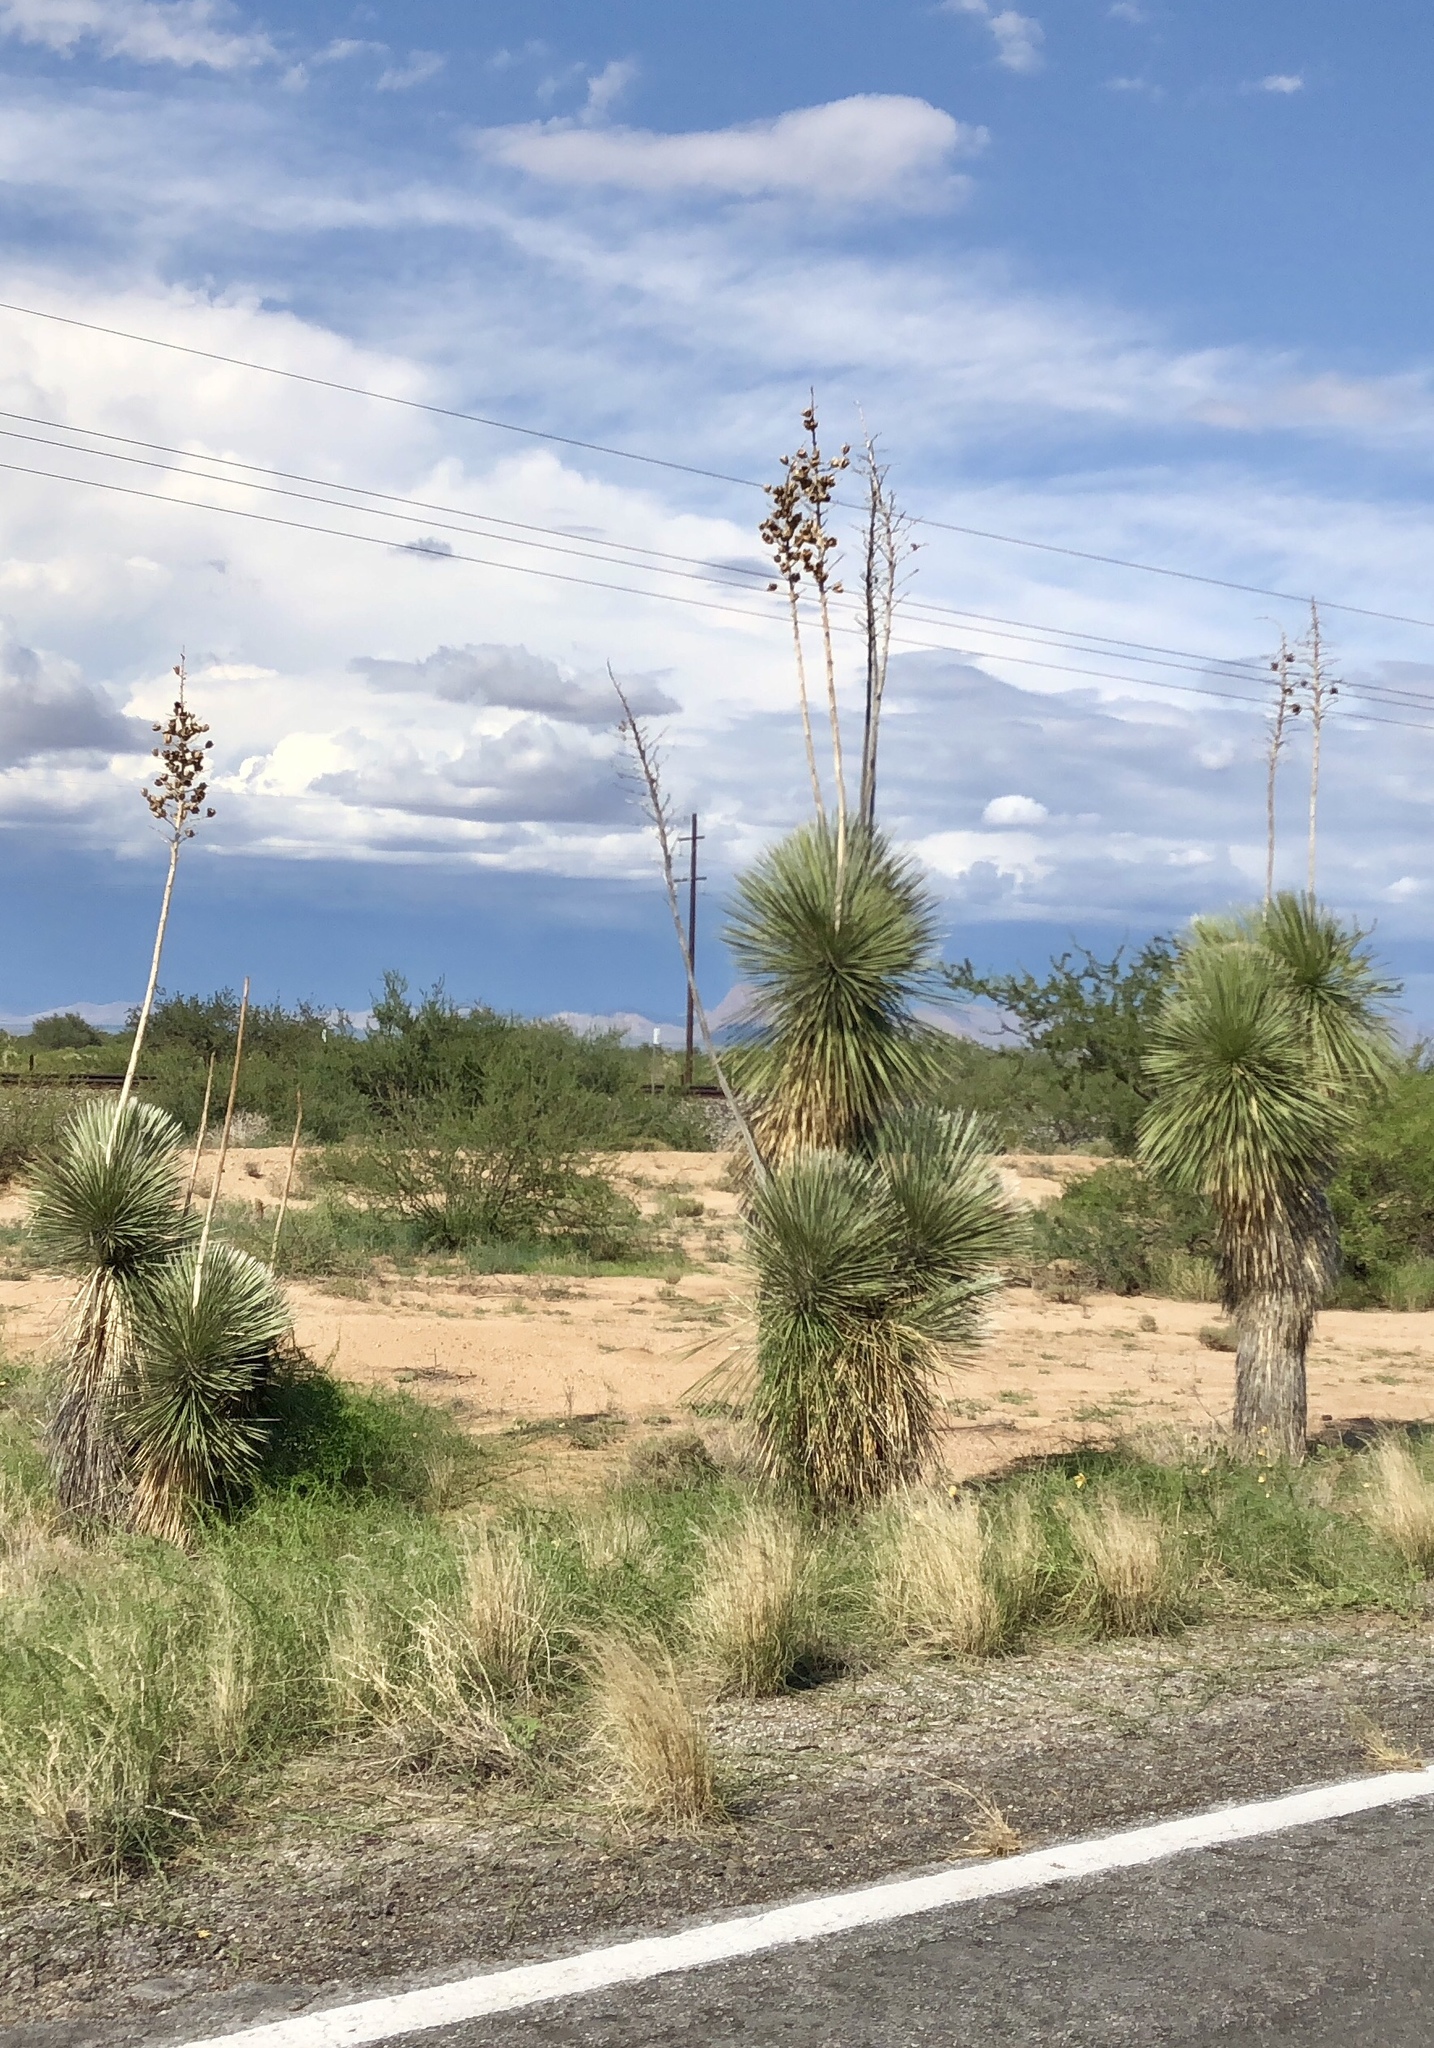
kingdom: Plantae
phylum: Tracheophyta
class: Liliopsida
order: Asparagales
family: Asparagaceae
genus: Yucca
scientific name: Yucca elata
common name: Palmella
